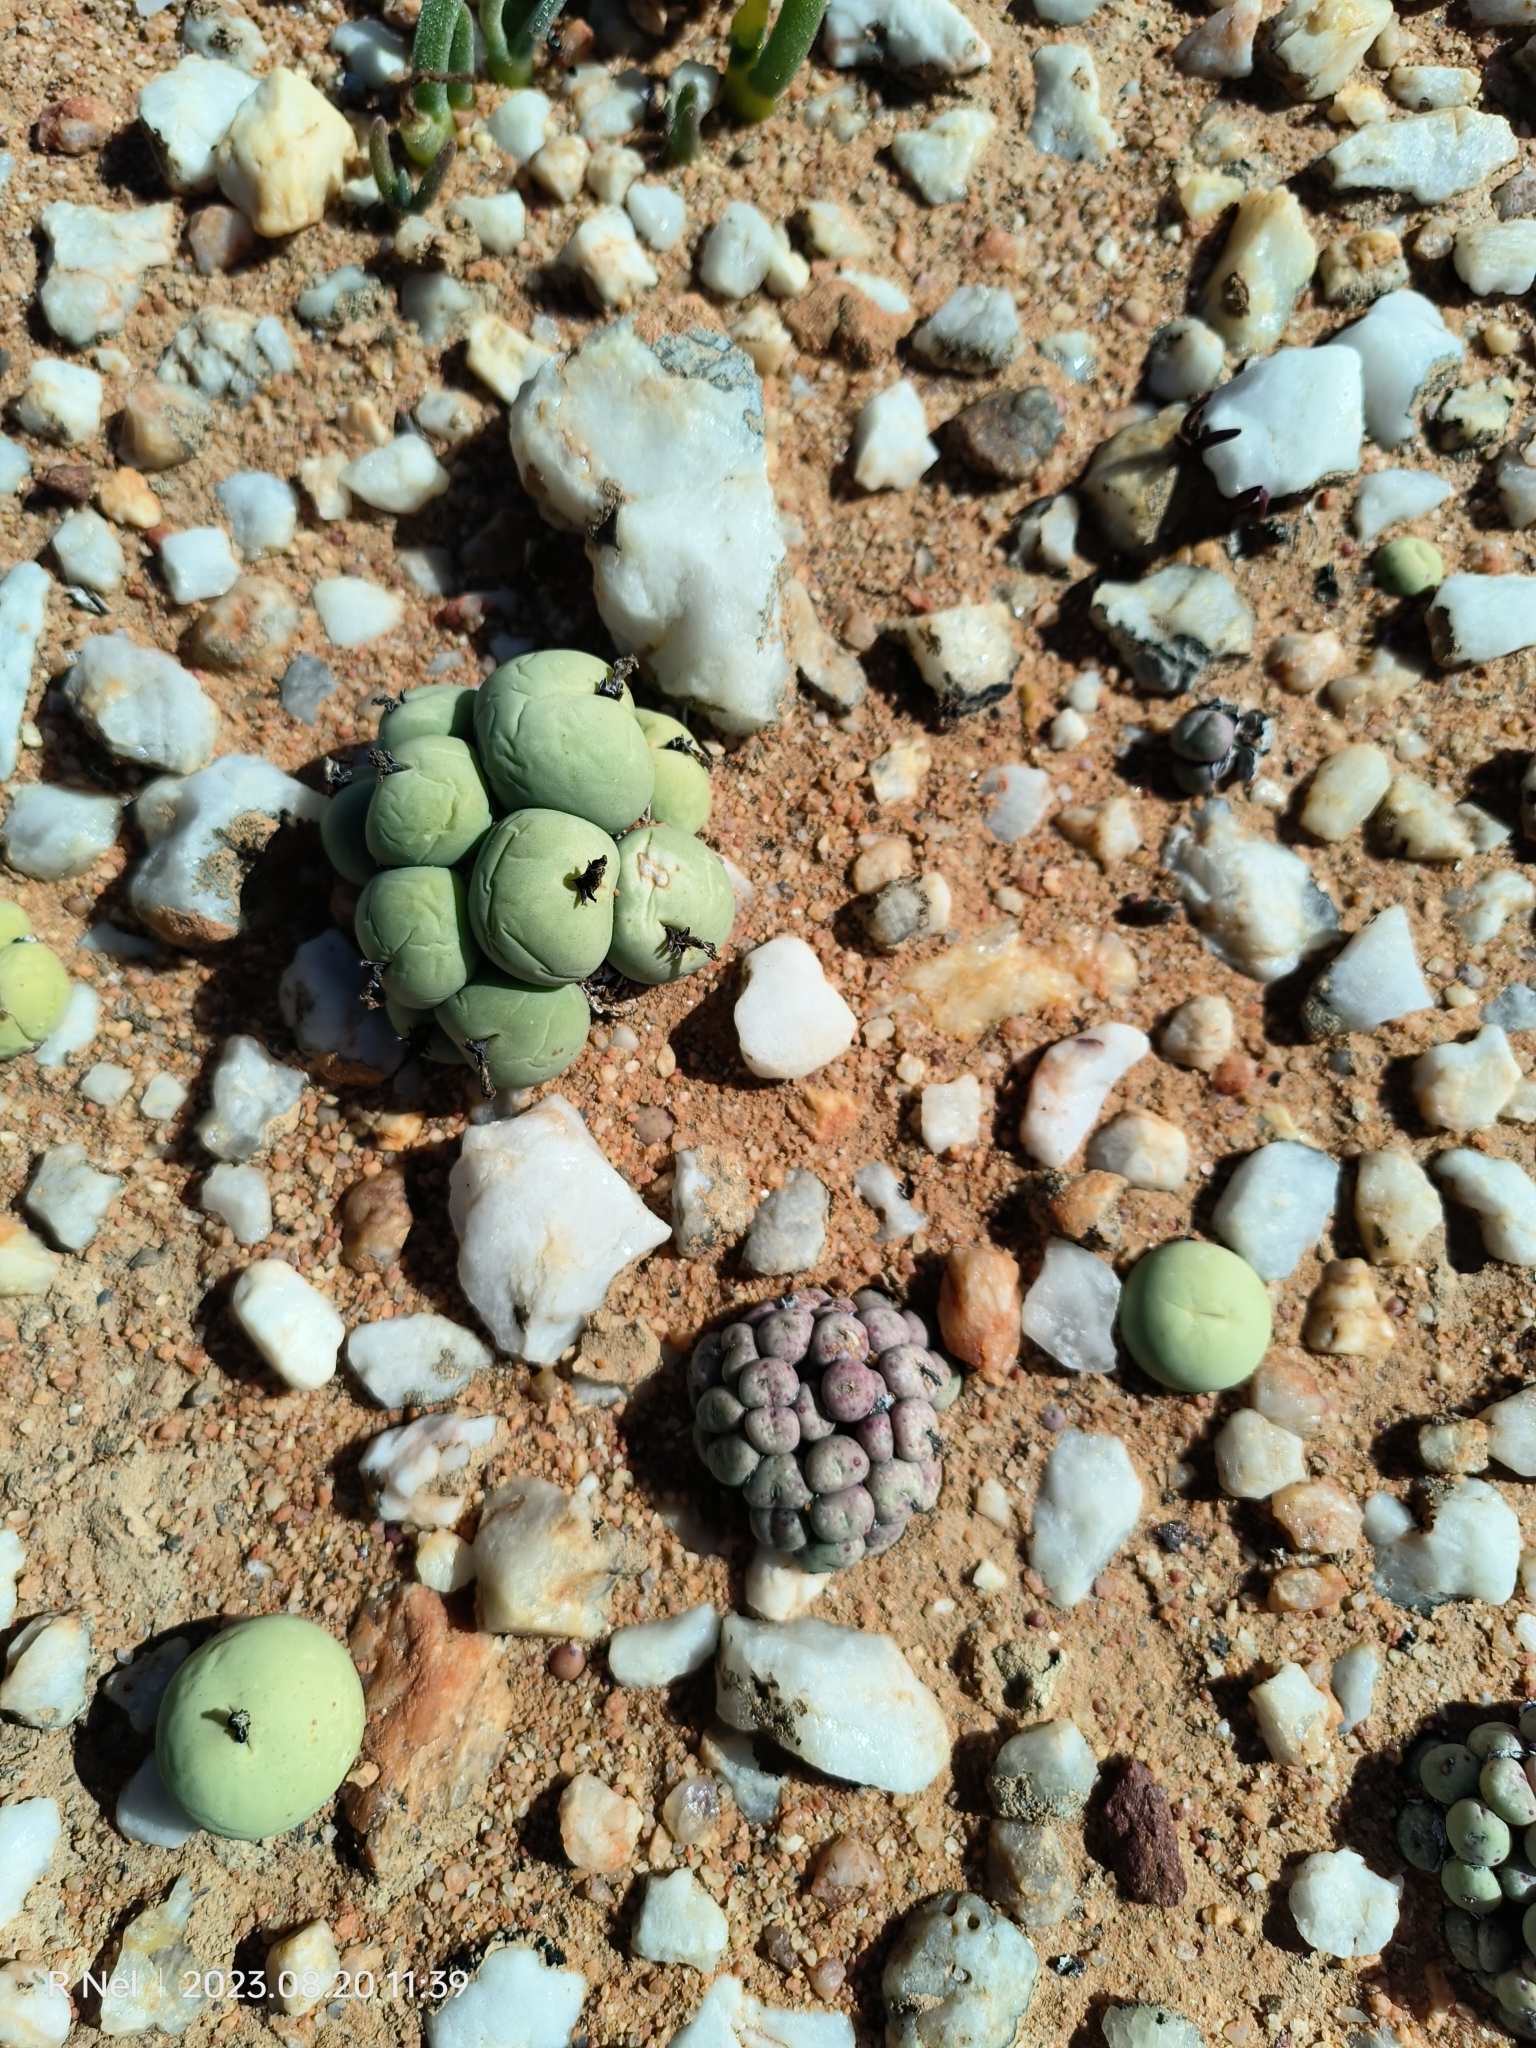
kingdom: Plantae
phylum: Tracheophyta
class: Magnoliopsida
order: Caryophyllales
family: Aizoaceae
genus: Conophytum
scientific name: Conophytum calculus
